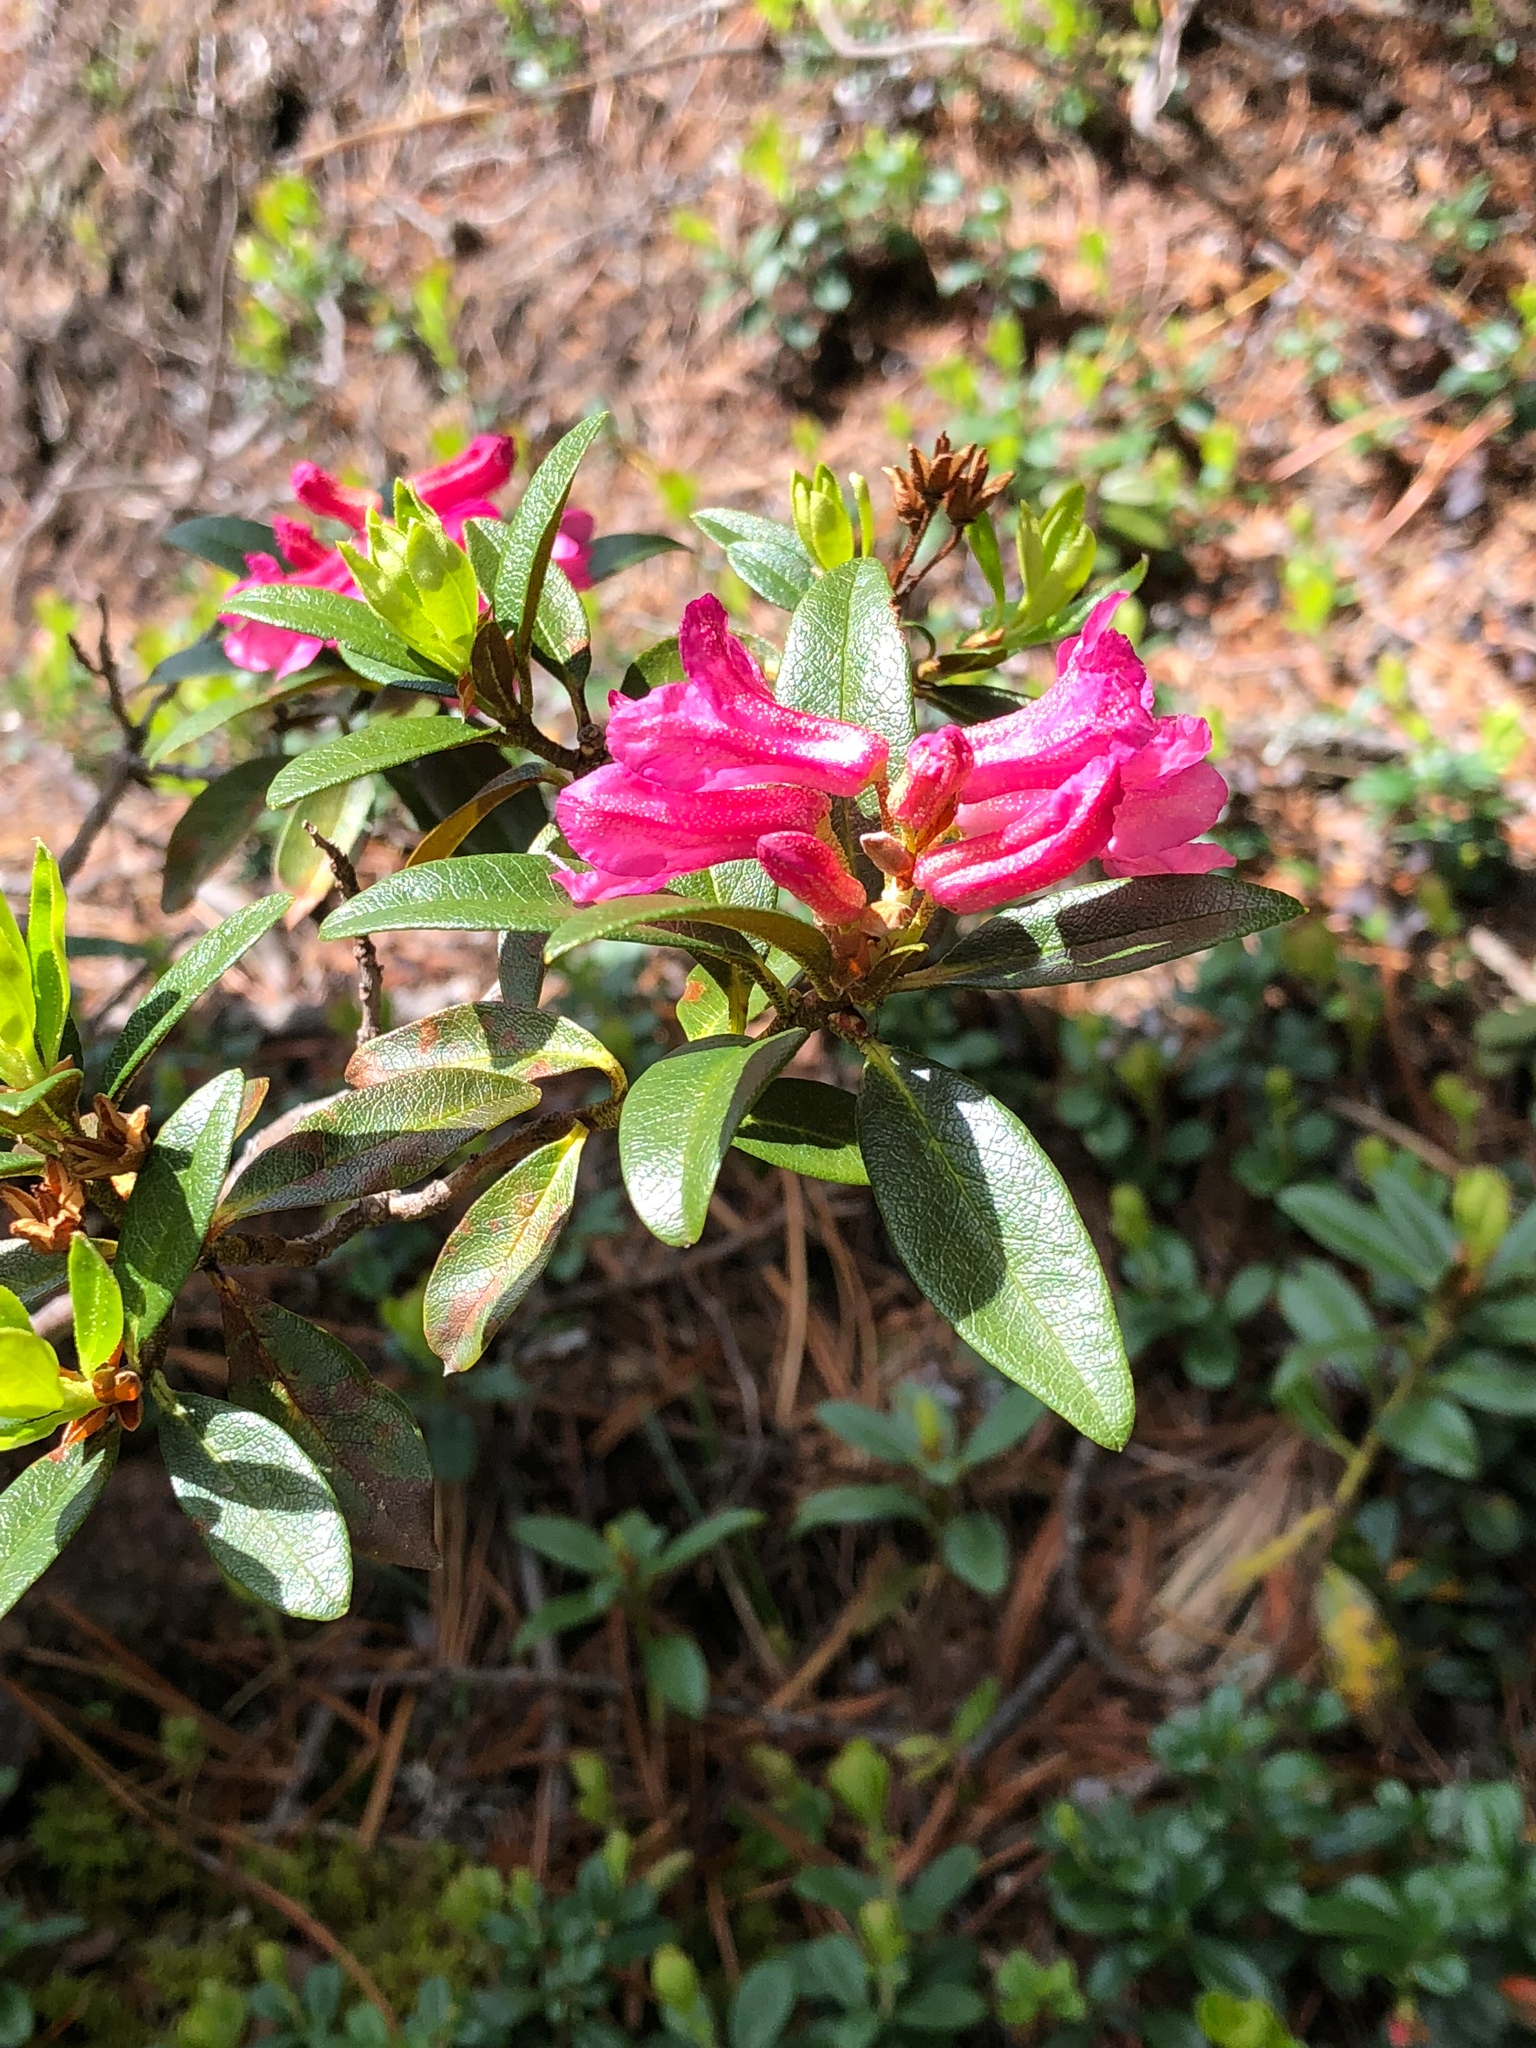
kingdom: Plantae
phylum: Tracheophyta
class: Magnoliopsida
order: Ericales
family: Ericaceae
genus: Rhododendron
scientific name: Rhododendron ferrugineum
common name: Alpenrose
